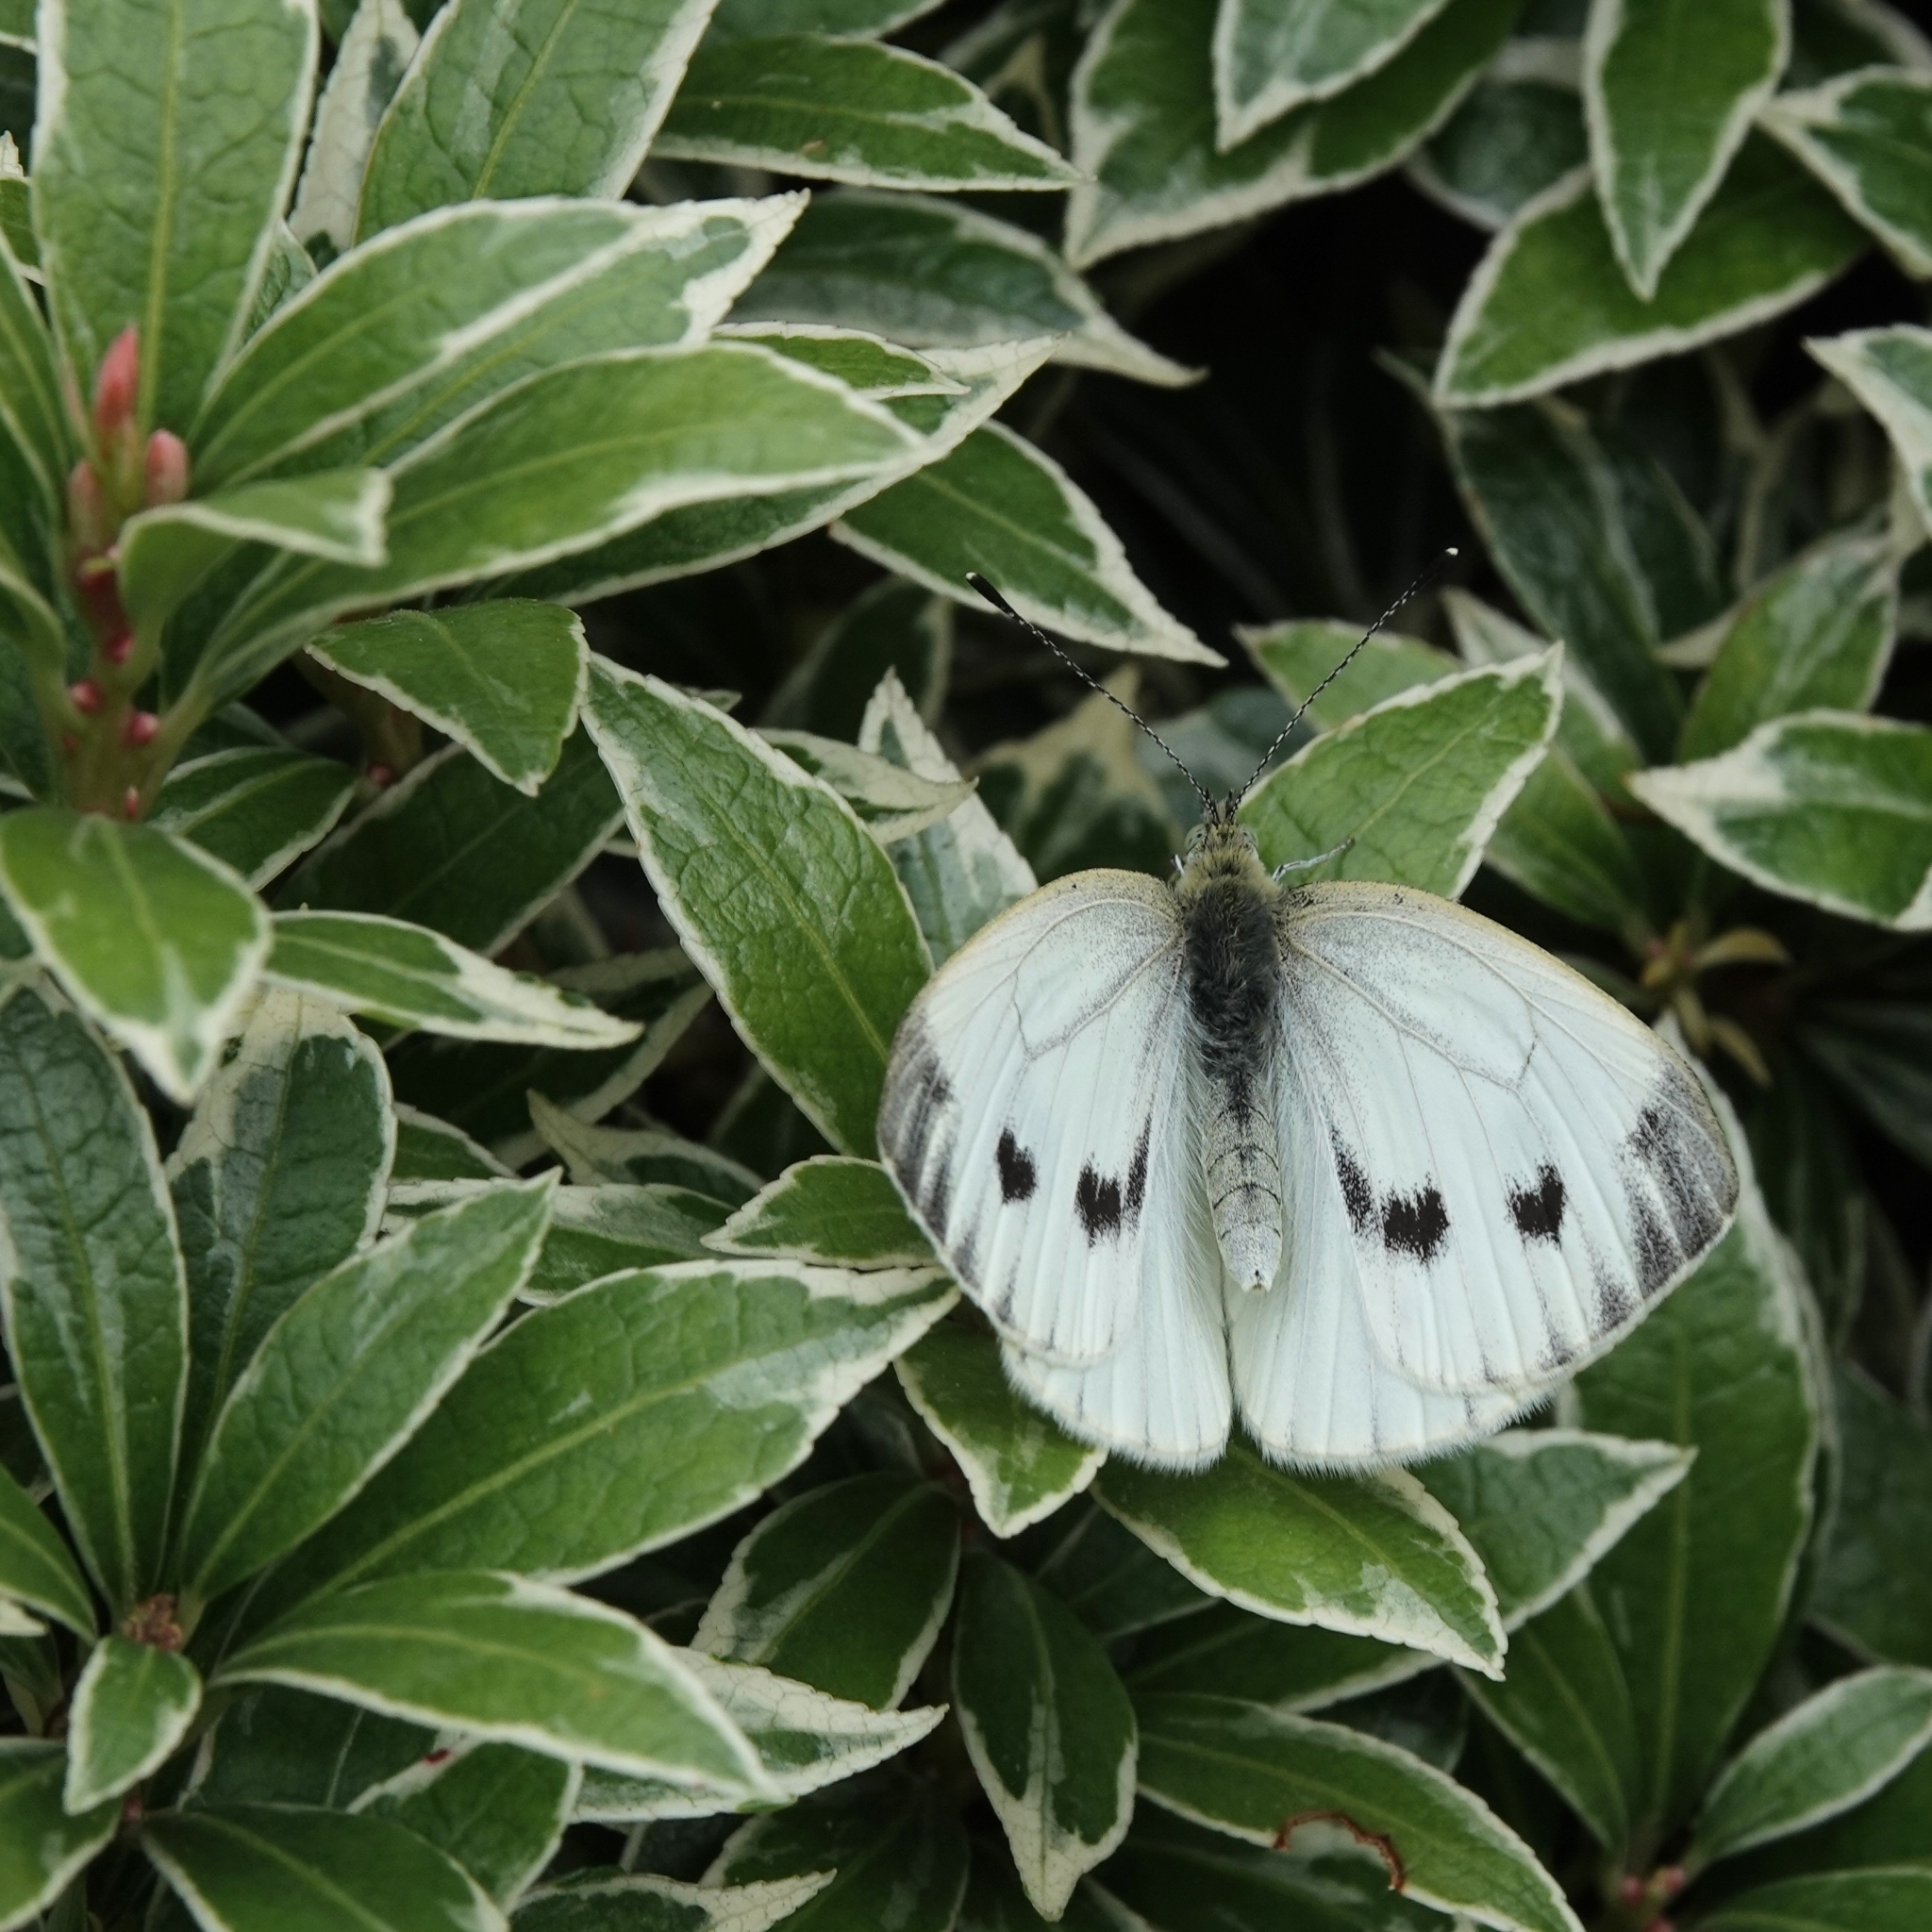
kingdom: Animalia
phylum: Arthropoda
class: Insecta
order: Lepidoptera
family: Pieridae
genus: Pieris
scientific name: Pieris napi
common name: Green-veined white
